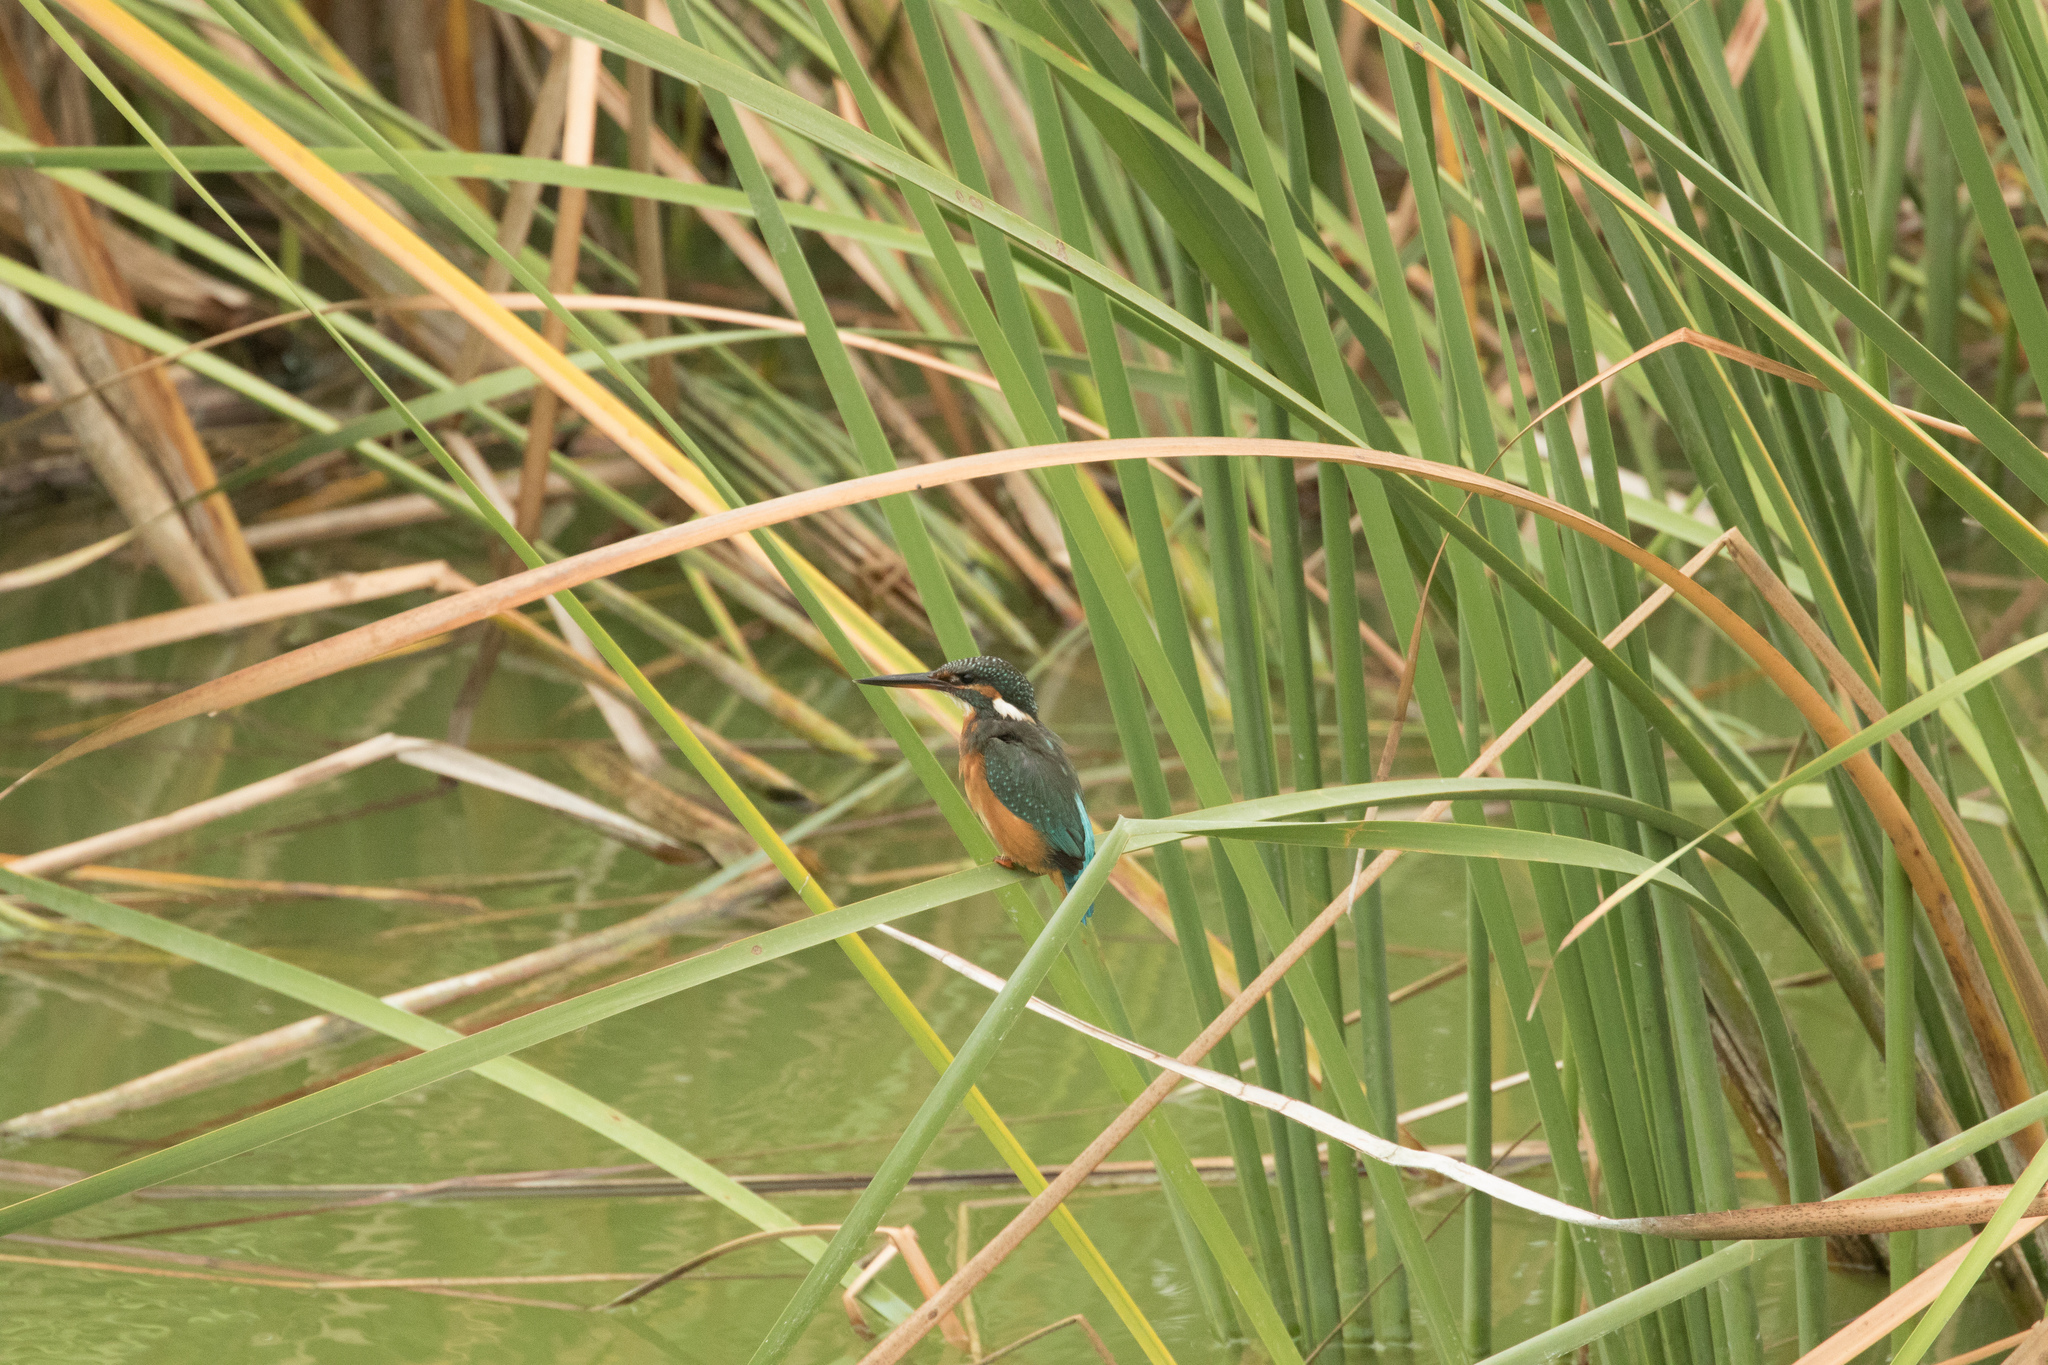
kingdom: Animalia
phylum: Chordata
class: Aves
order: Coraciiformes
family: Alcedinidae
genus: Alcedo
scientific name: Alcedo atthis
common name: Common kingfisher
